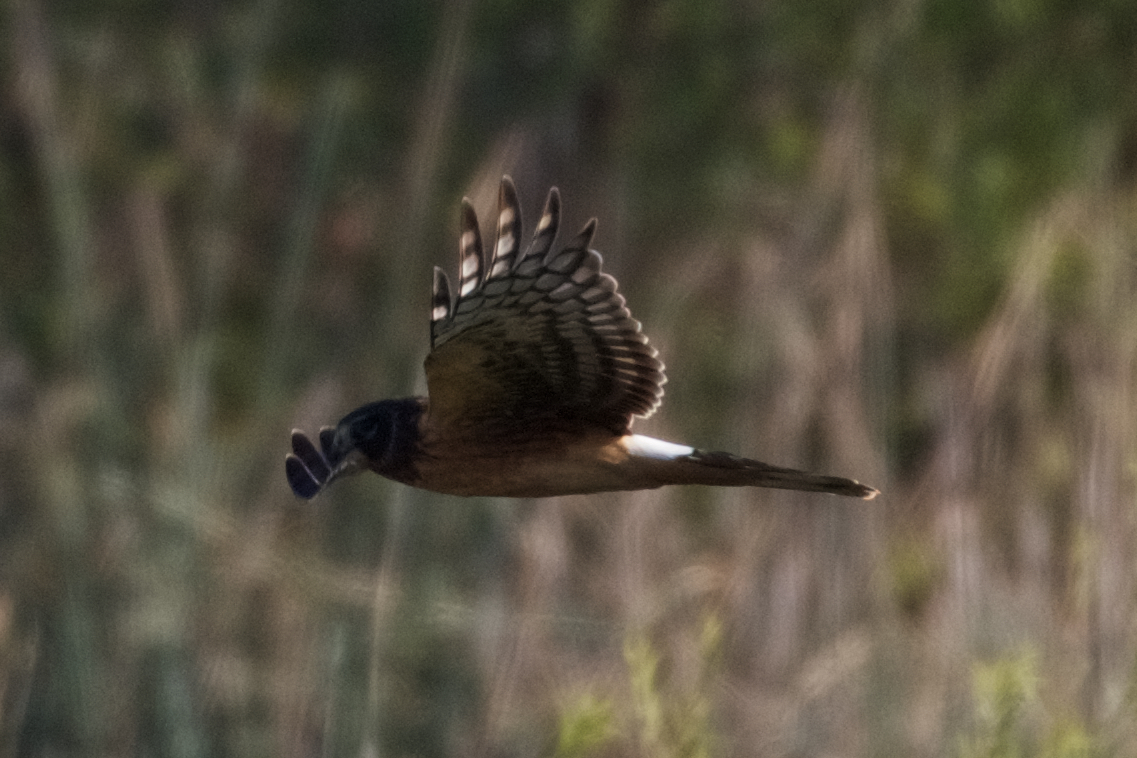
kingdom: Animalia
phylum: Chordata
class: Aves
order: Accipitriformes
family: Accipitridae
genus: Circus
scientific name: Circus cyaneus
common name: Hen harrier
